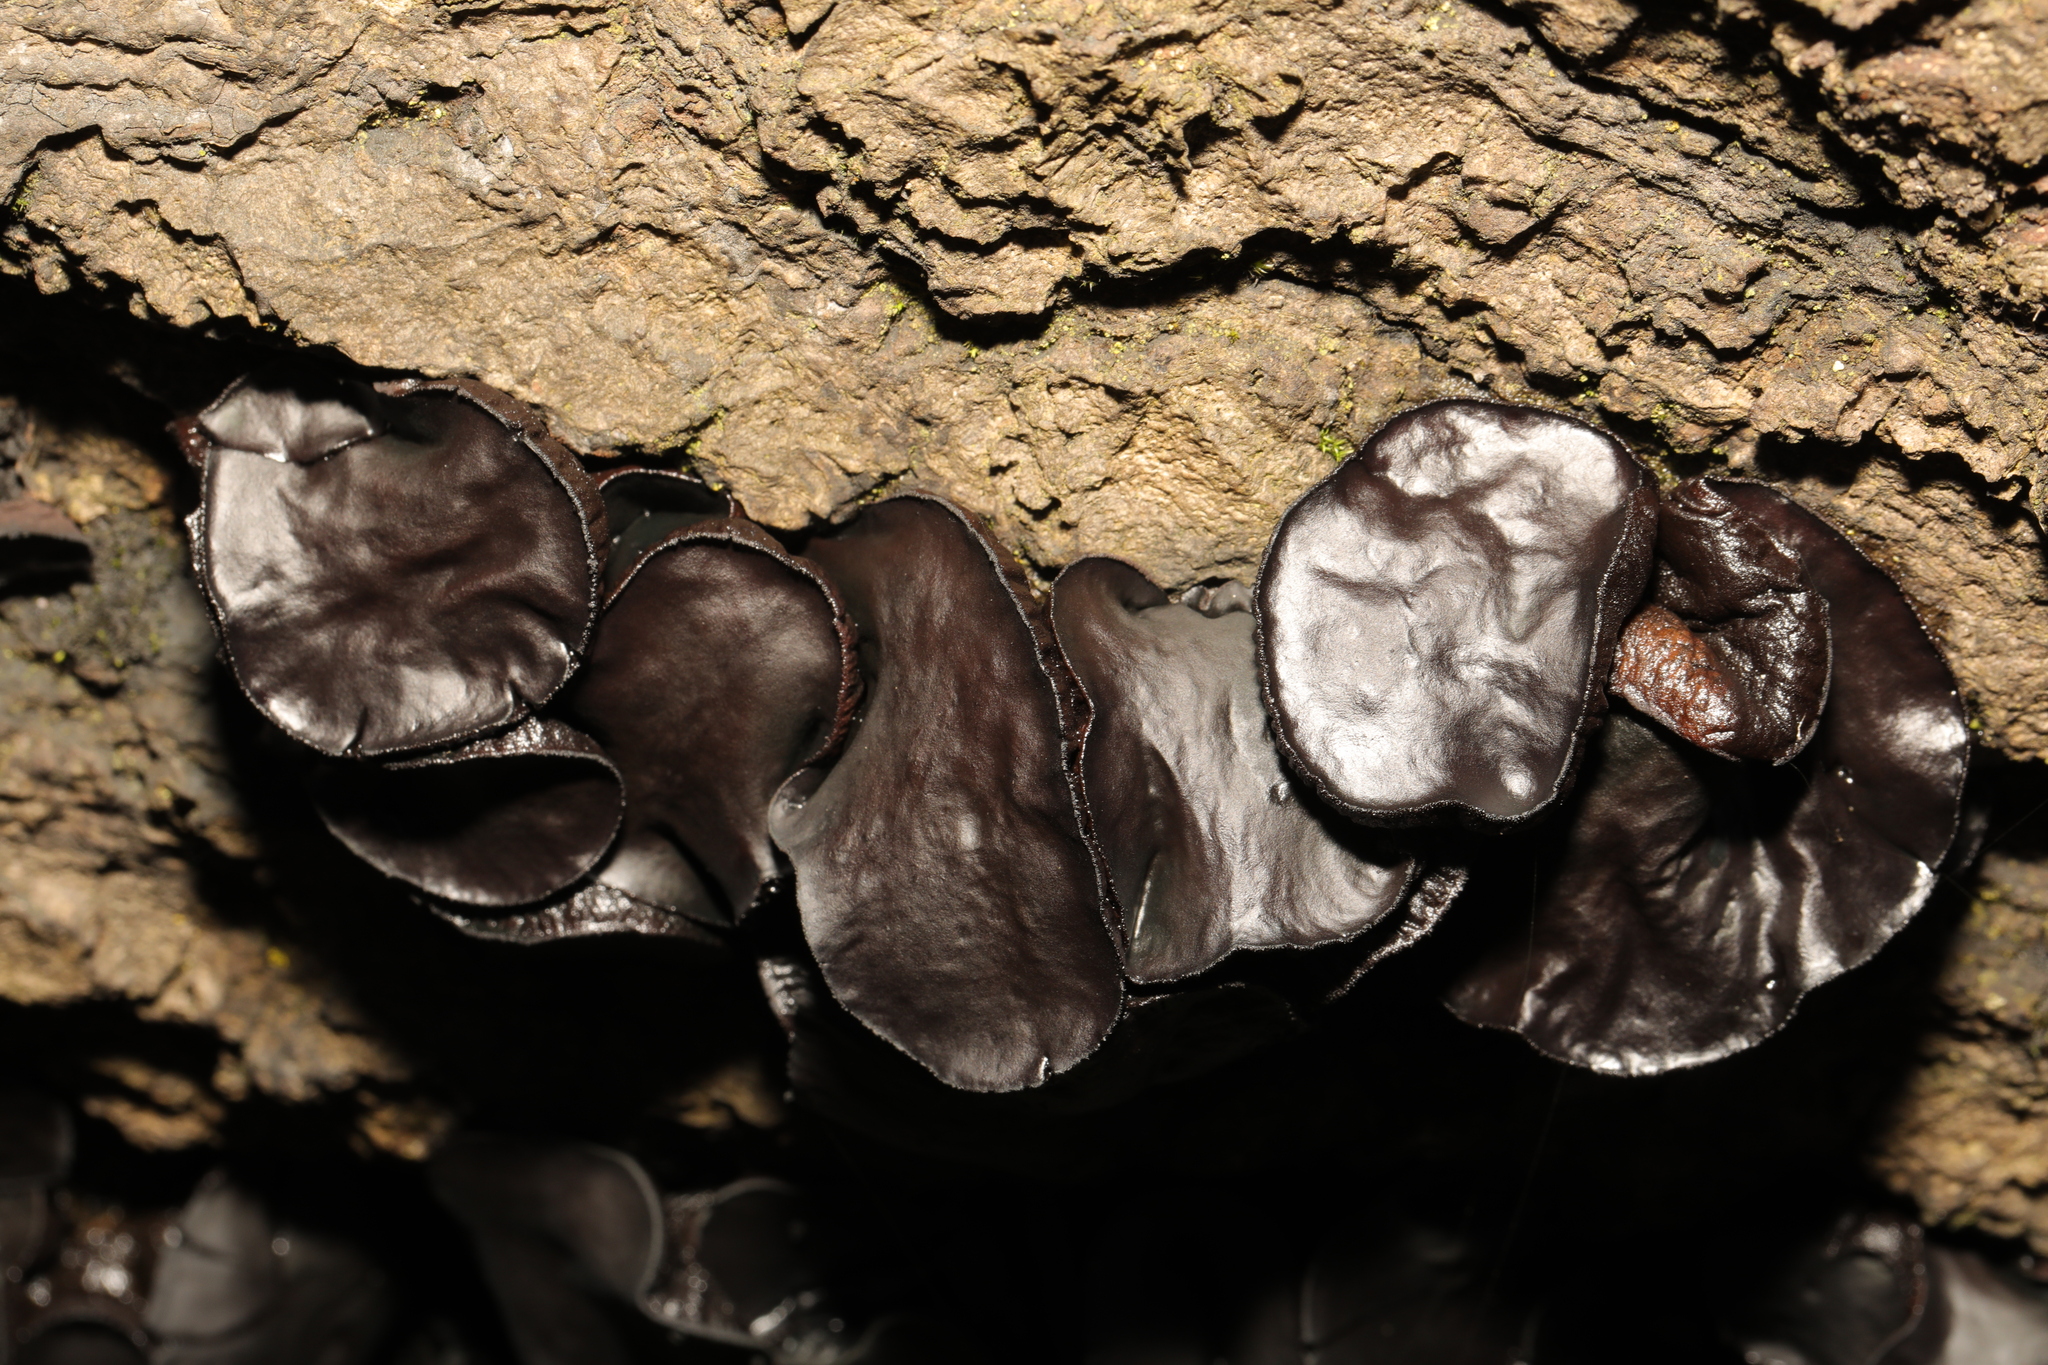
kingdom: Fungi
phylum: Ascomycota
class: Leotiomycetes
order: Phacidiales
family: Phacidiaceae
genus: Bulgaria
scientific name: Bulgaria inquinans
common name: Black bulgar
